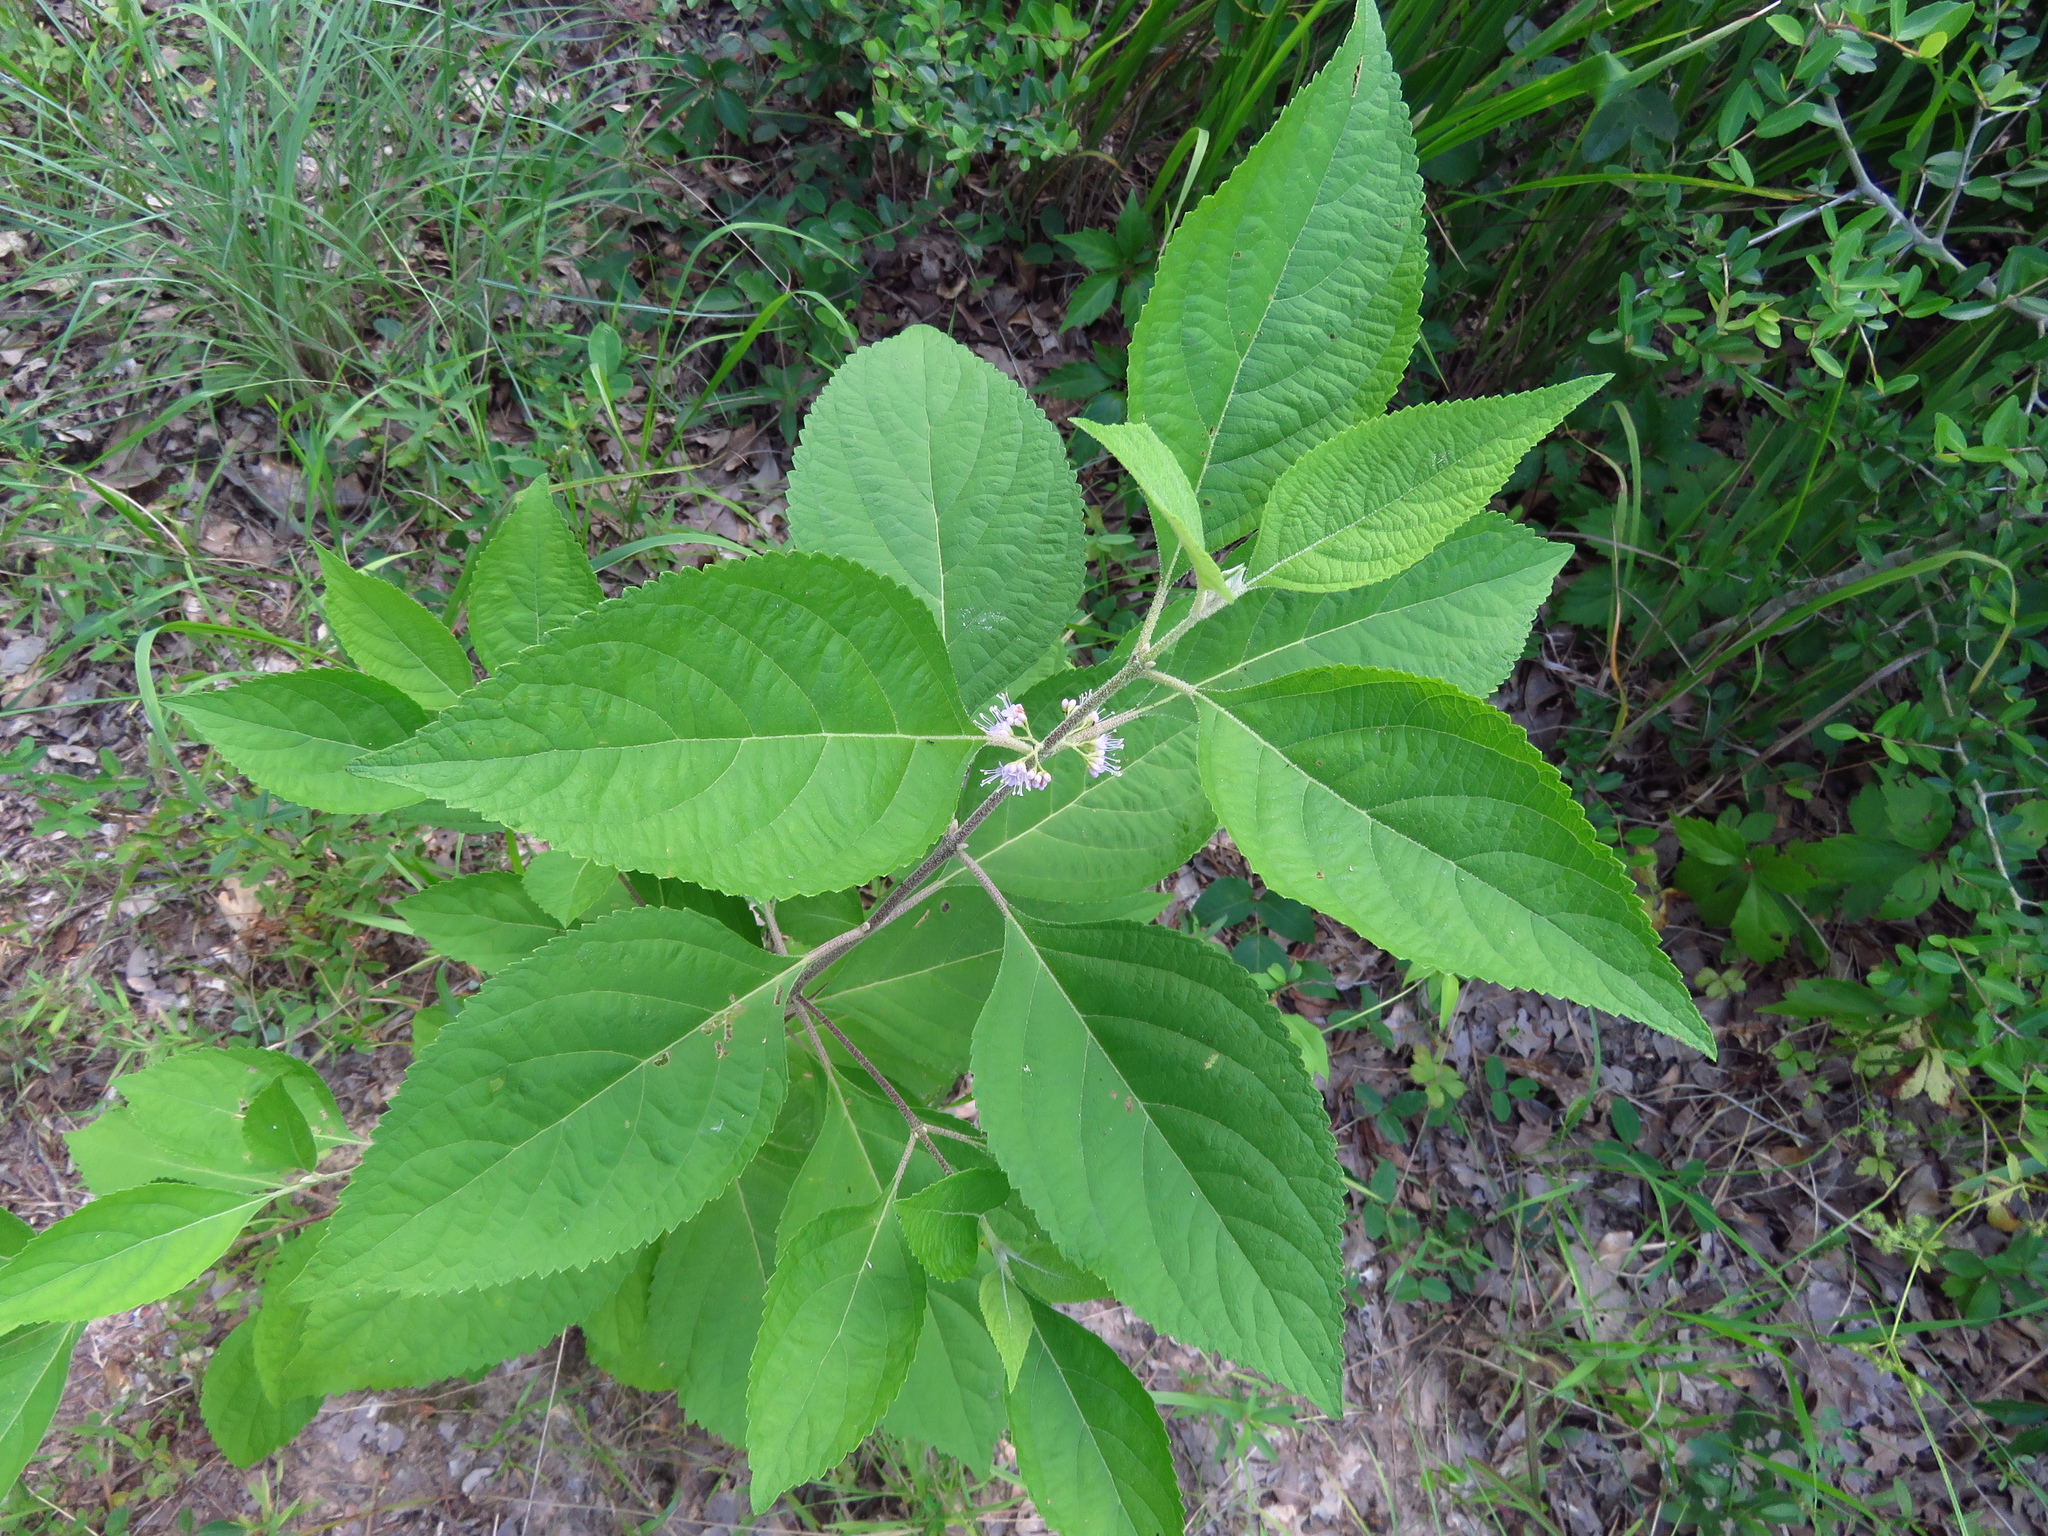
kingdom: Plantae
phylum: Tracheophyta
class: Magnoliopsida
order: Lamiales
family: Lamiaceae
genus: Callicarpa
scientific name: Callicarpa americana
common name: American beautyberry
